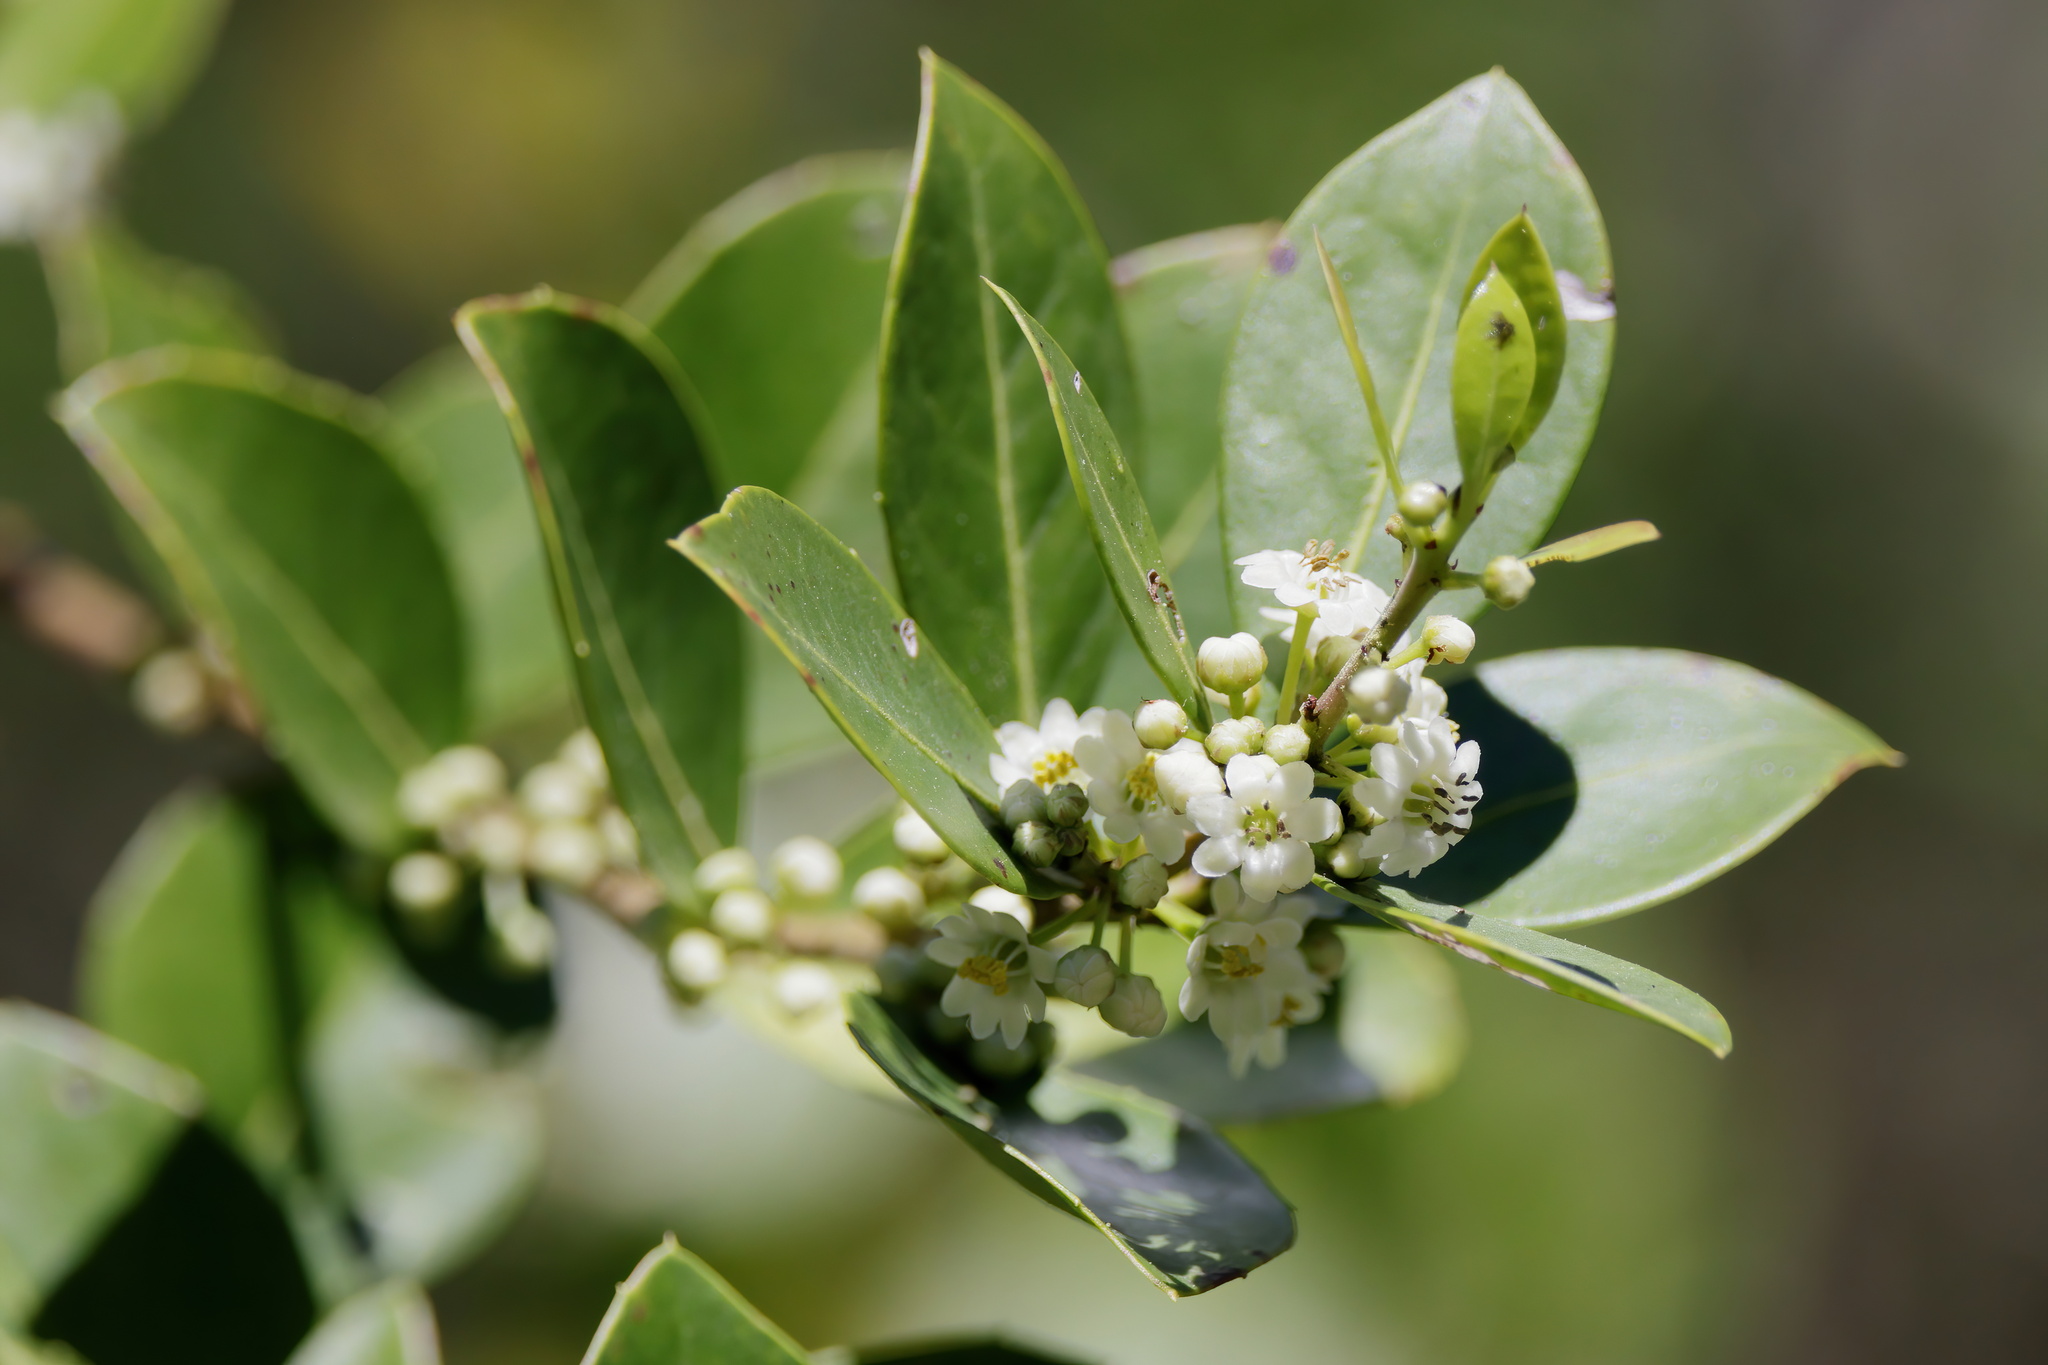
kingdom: Plantae
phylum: Tracheophyta
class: Magnoliopsida
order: Aquifoliales
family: Aquifoliaceae
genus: Ilex
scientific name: Ilex coriacea
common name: Sweet gallberry
